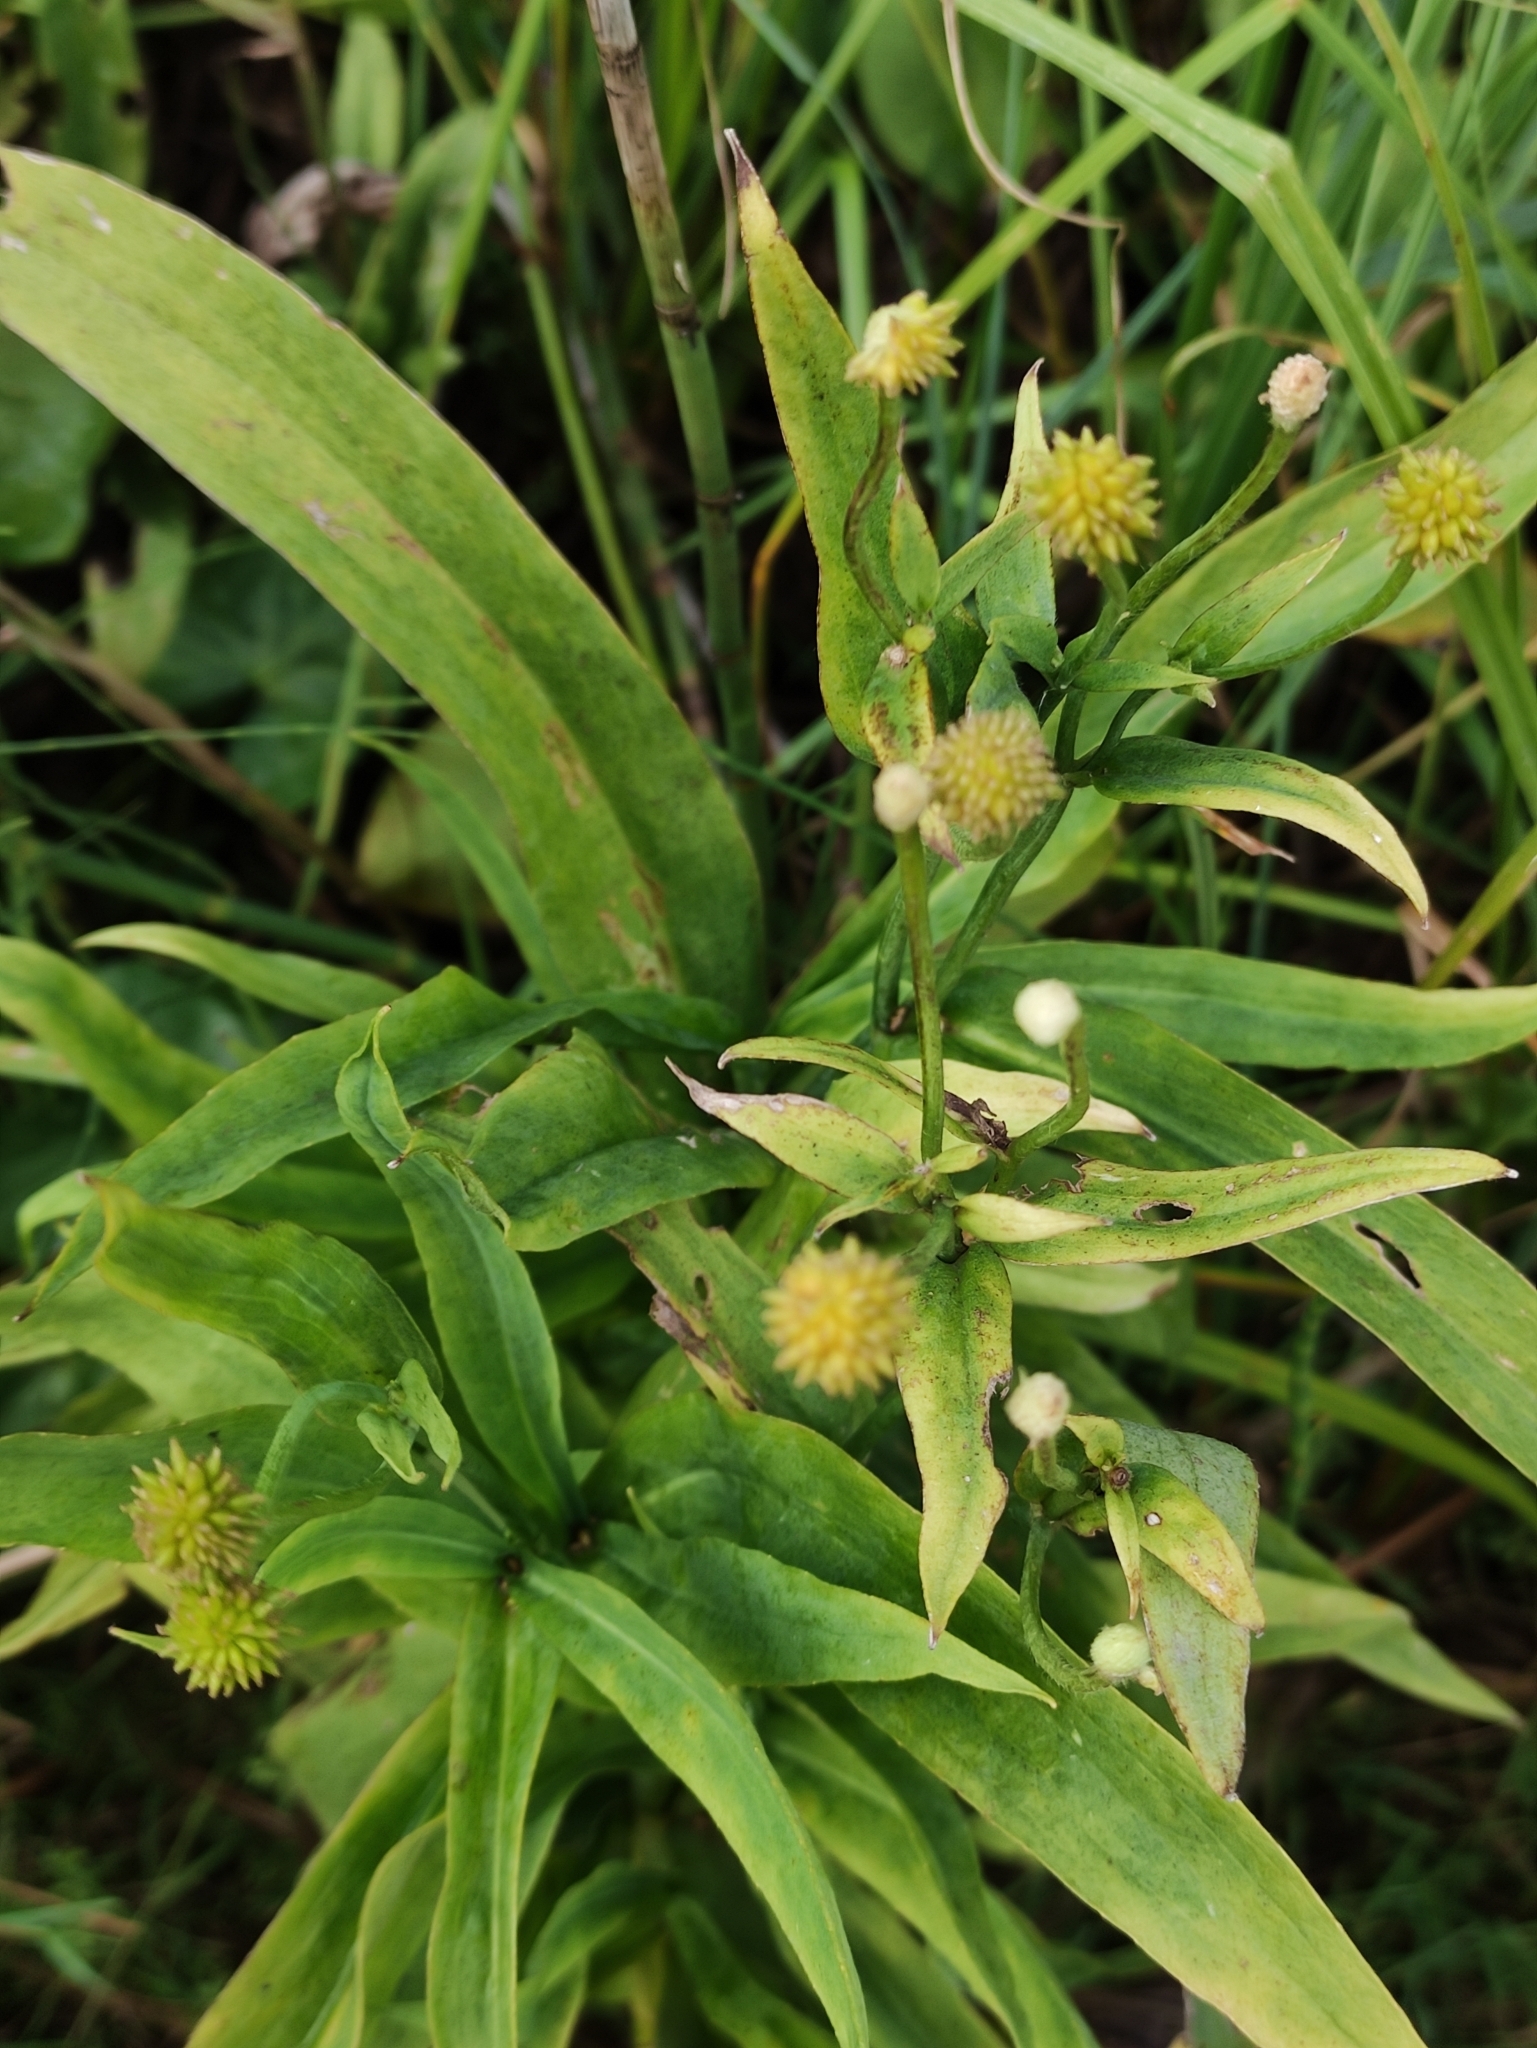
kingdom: Plantae
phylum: Tracheophyta
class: Magnoliopsida
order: Ranunculales
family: Ranunculaceae
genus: Ranunculus
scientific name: Ranunculus lingua
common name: Greater spearwort
